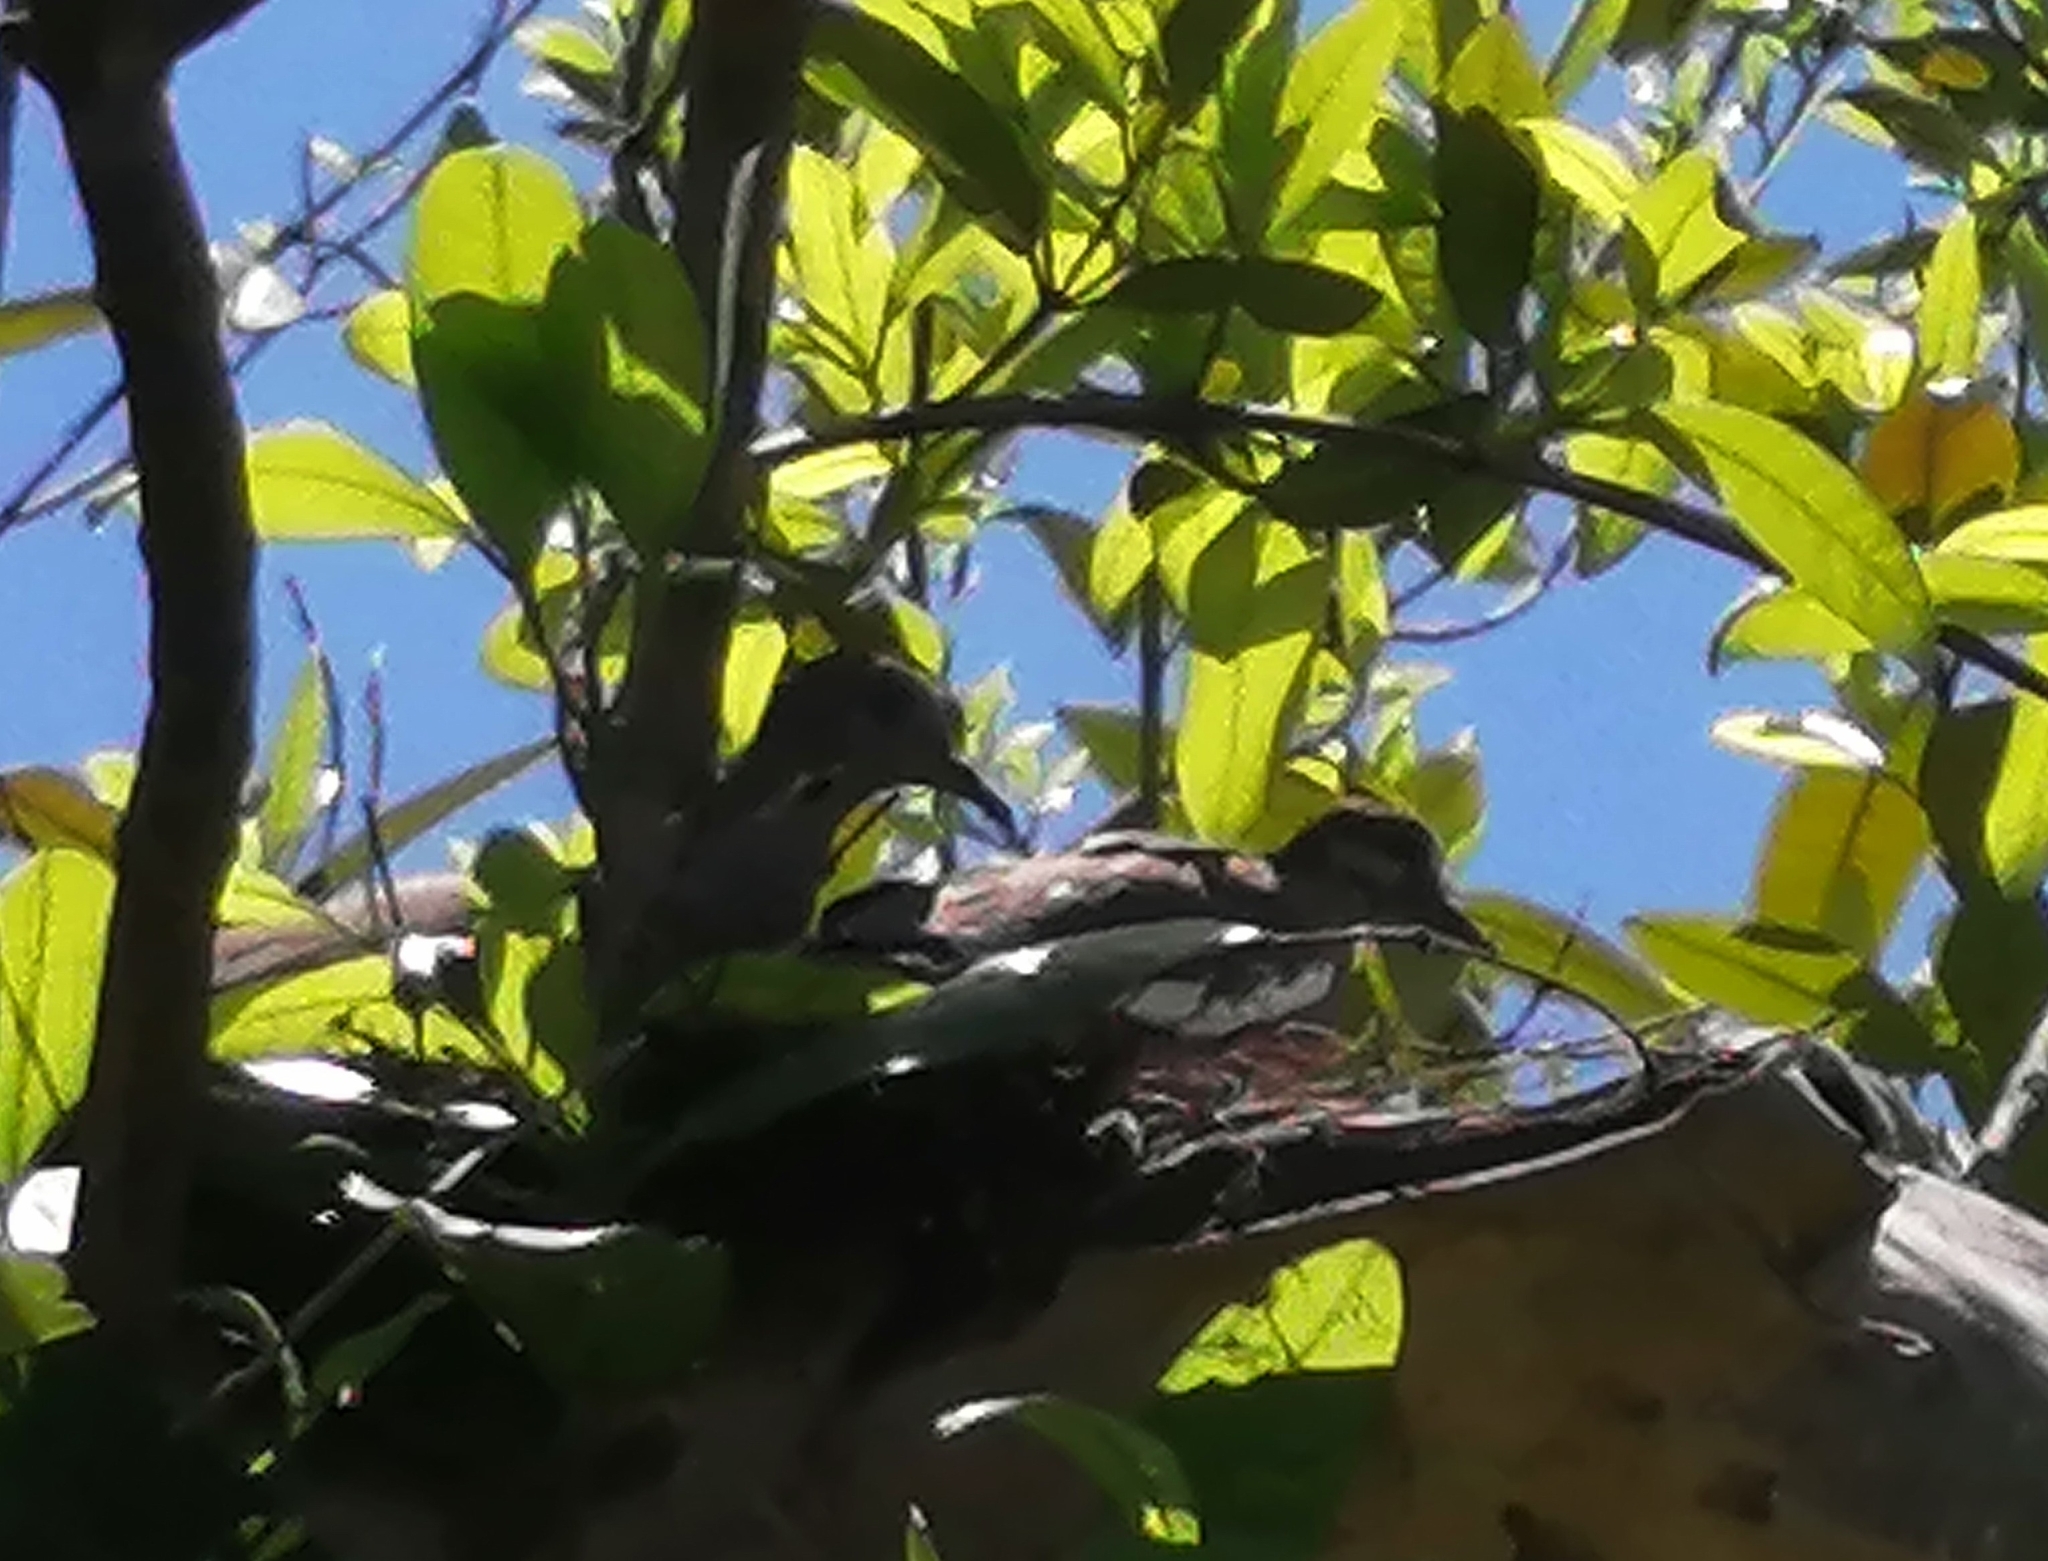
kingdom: Animalia
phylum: Chordata
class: Aves
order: Columbiformes
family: Columbidae
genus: Zenaida
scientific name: Zenaida asiatica
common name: White-winged dove
